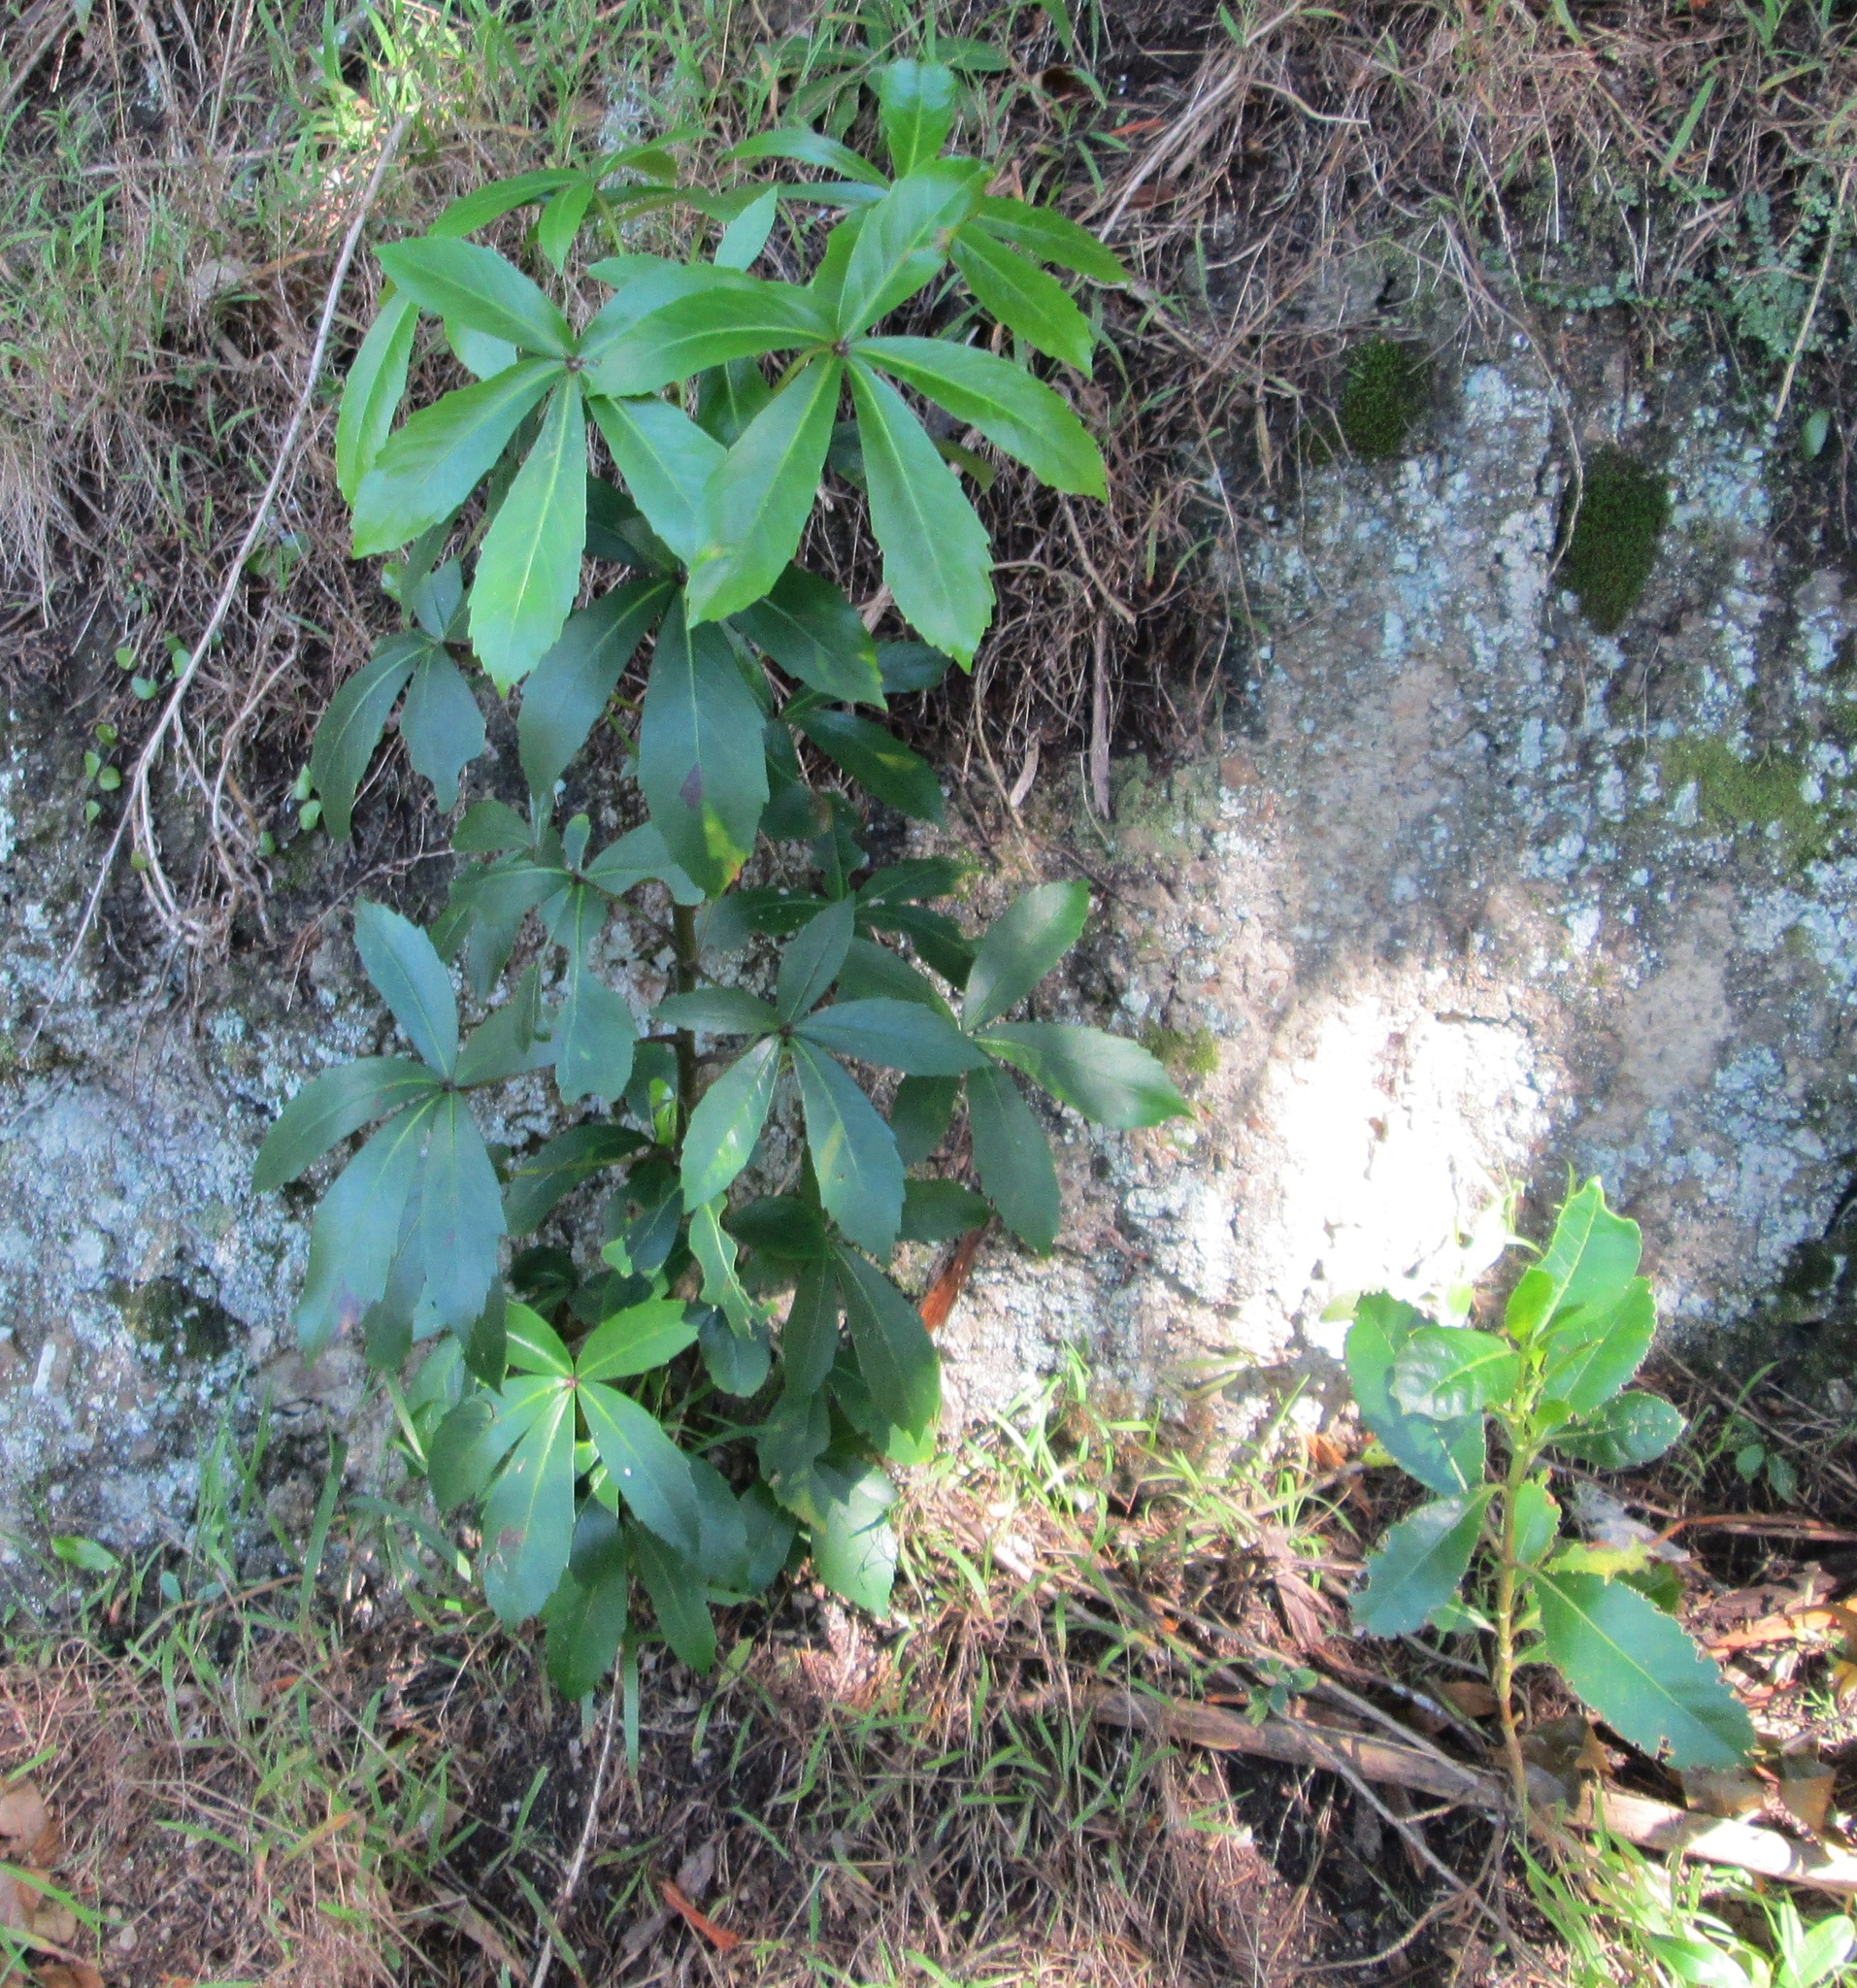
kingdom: Plantae
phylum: Tracheophyta
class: Magnoliopsida
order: Apiales
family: Araliaceae
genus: Pseudopanax
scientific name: Pseudopanax lessonii
